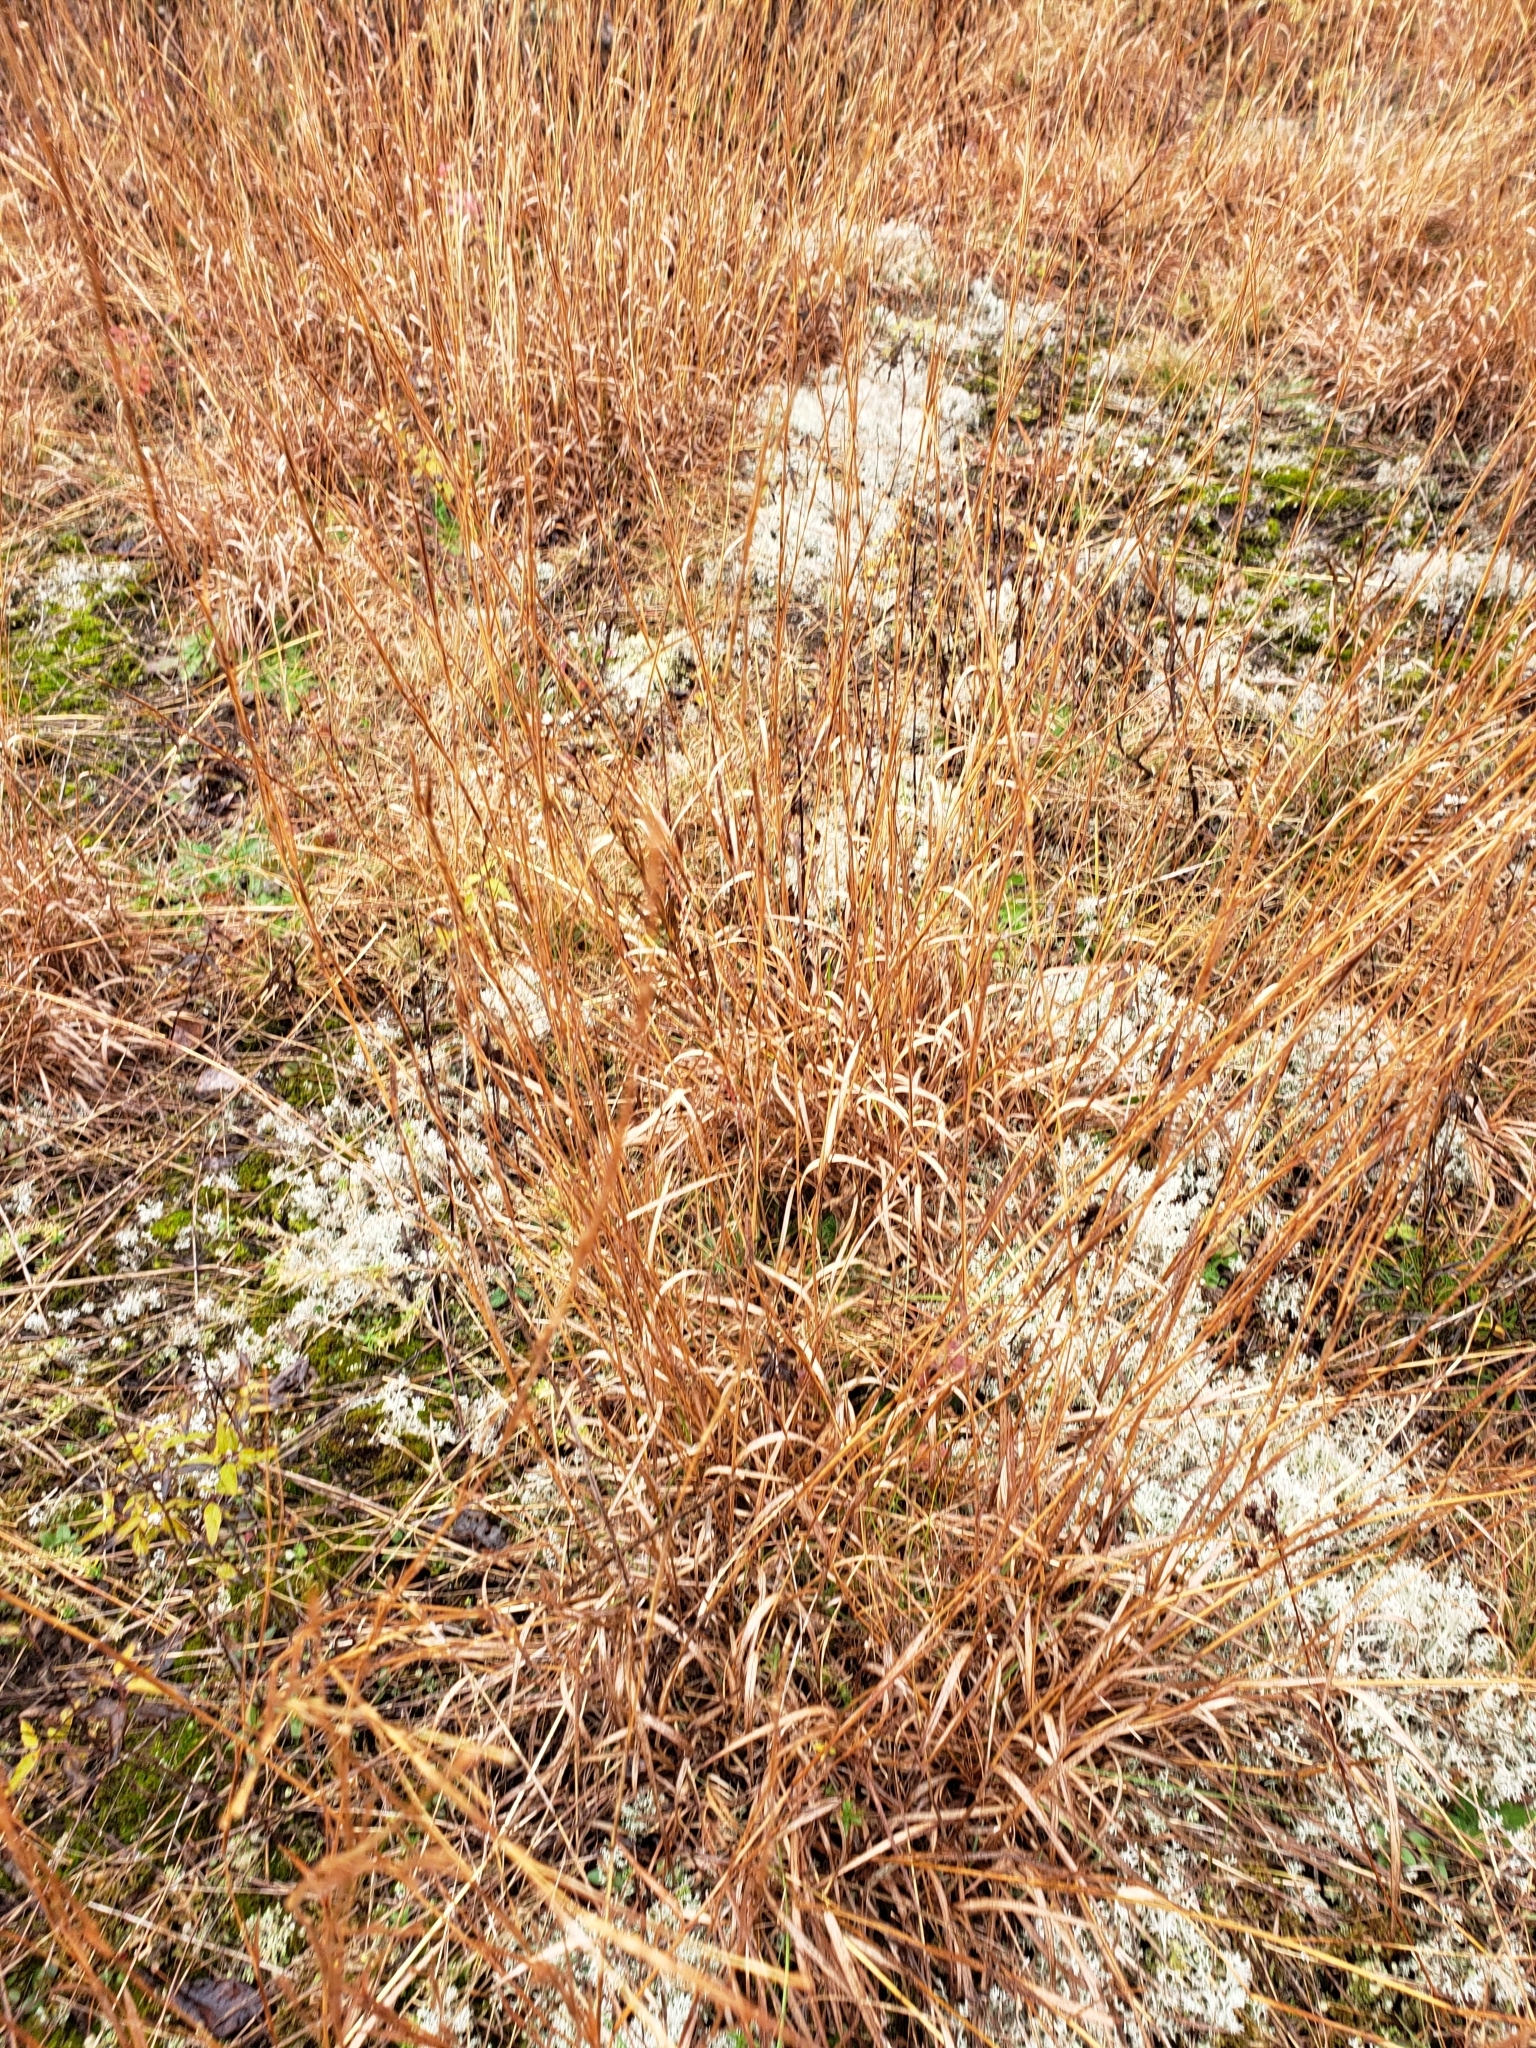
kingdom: Plantae
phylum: Tracheophyta
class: Liliopsida
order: Poales
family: Poaceae
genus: Schizachyrium
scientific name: Schizachyrium scoparium
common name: Little bluestem
